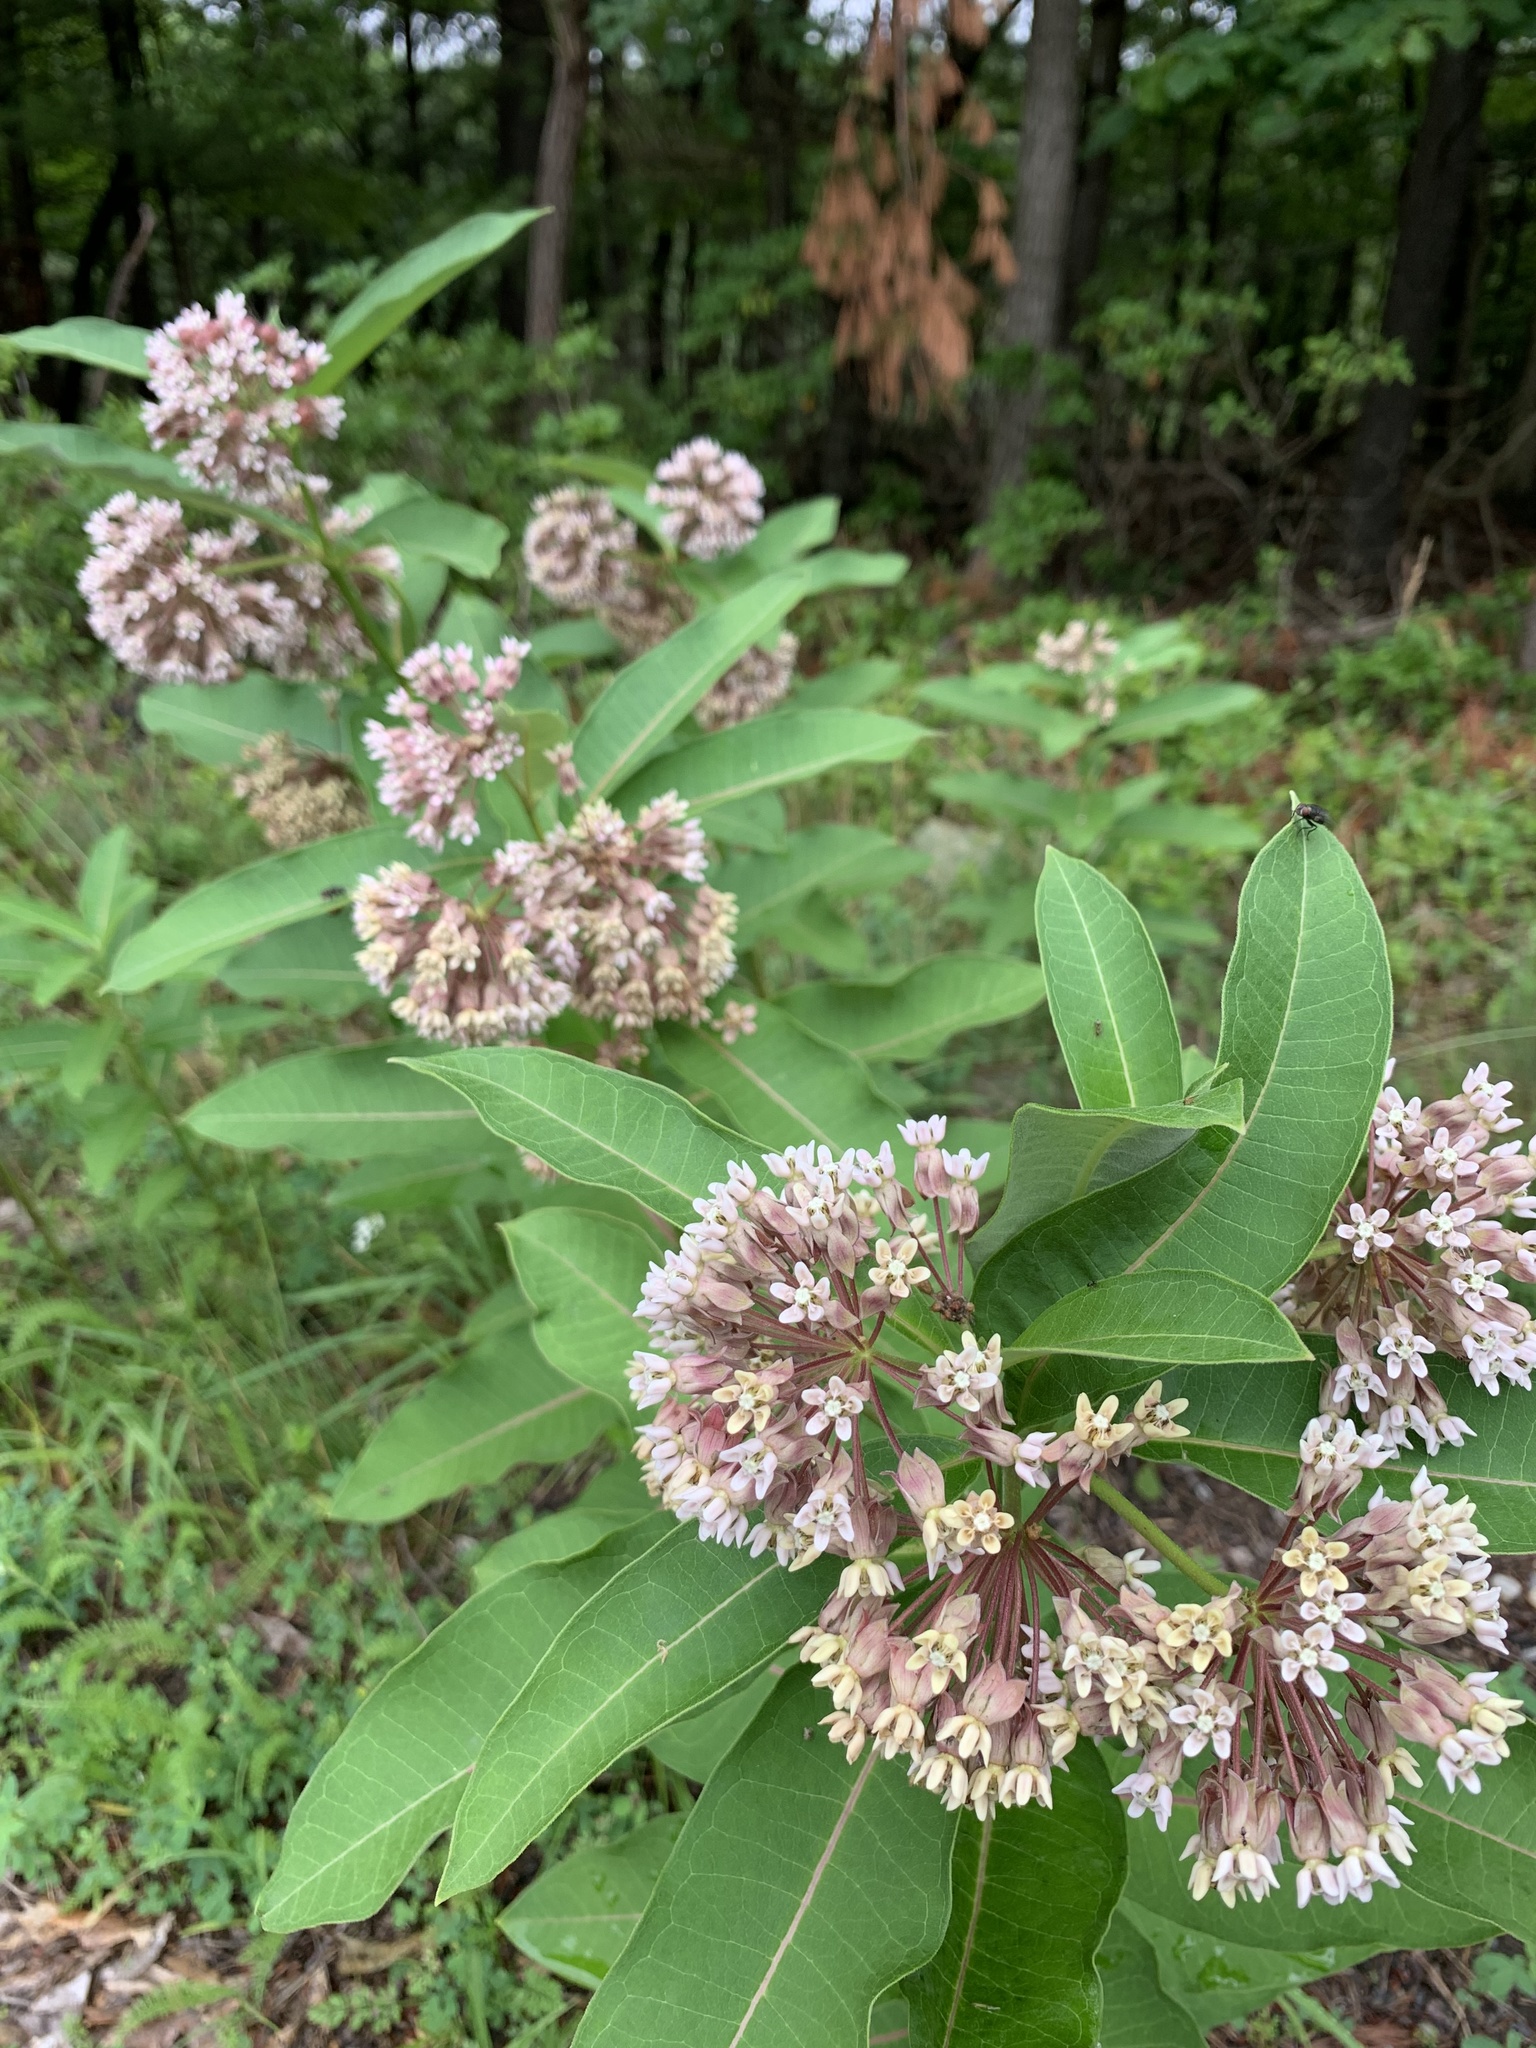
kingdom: Plantae
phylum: Tracheophyta
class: Magnoliopsida
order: Gentianales
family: Apocynaceae
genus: Asclepias
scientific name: Asclepias syriaca
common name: Common milkweed
